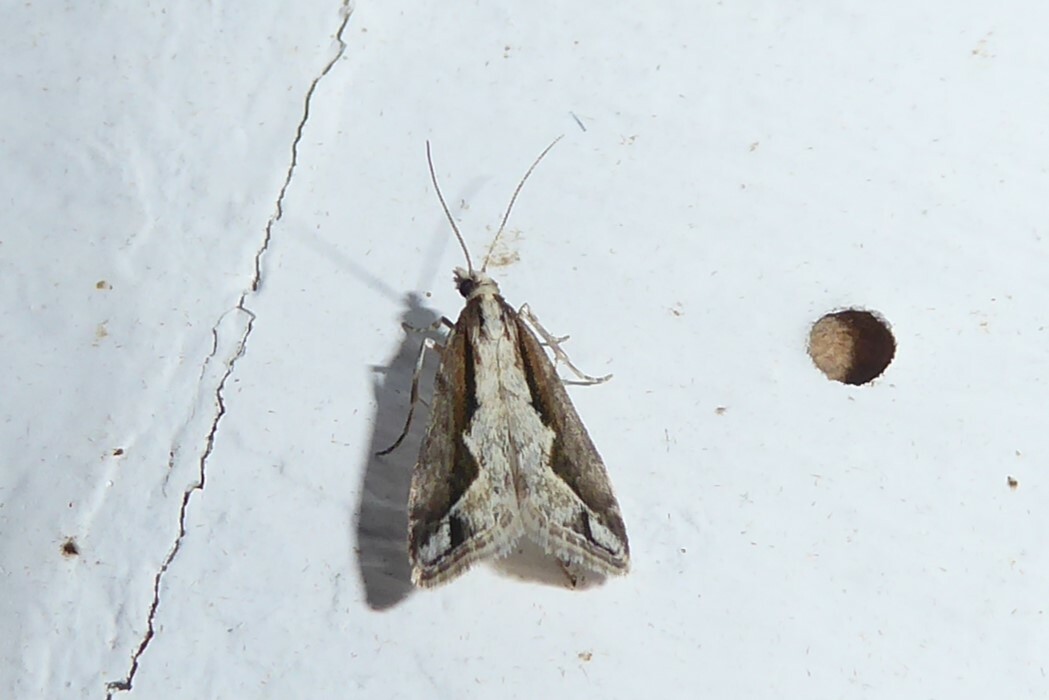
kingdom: Animalia
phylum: Arthropoda
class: Insecta
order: Lepidoptera
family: Crambidae
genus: Eudonia
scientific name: Eudonia steropaea
